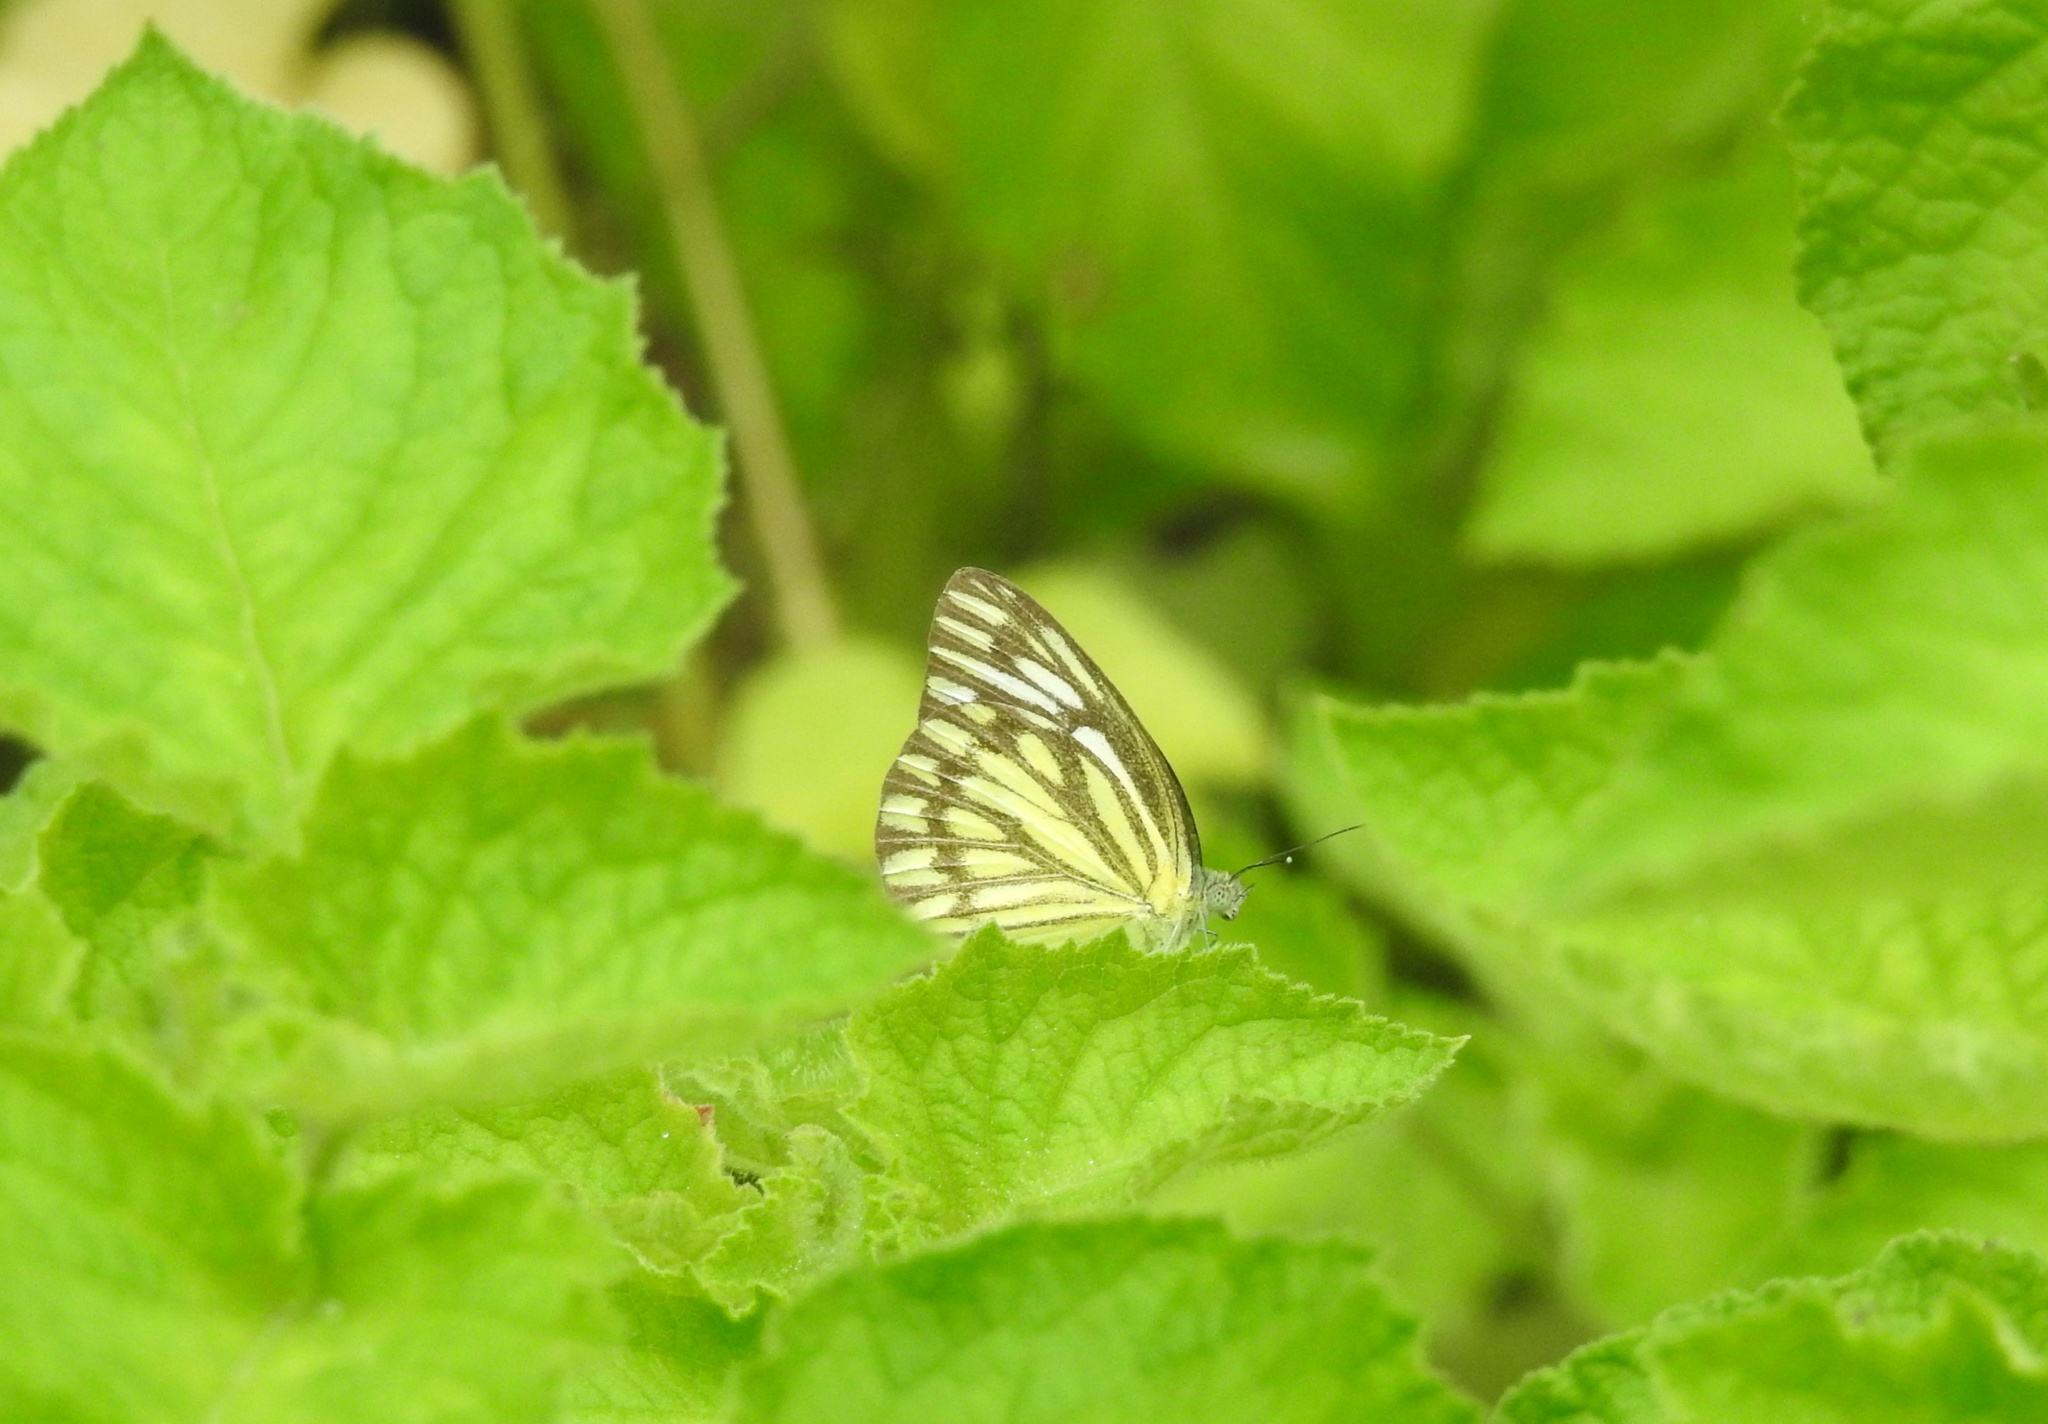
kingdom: Animalia
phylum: Arthropoda
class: Insecta
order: Lepidoptera
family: Pieridae
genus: Cepora
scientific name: Cepora nerissa
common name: Common gull
